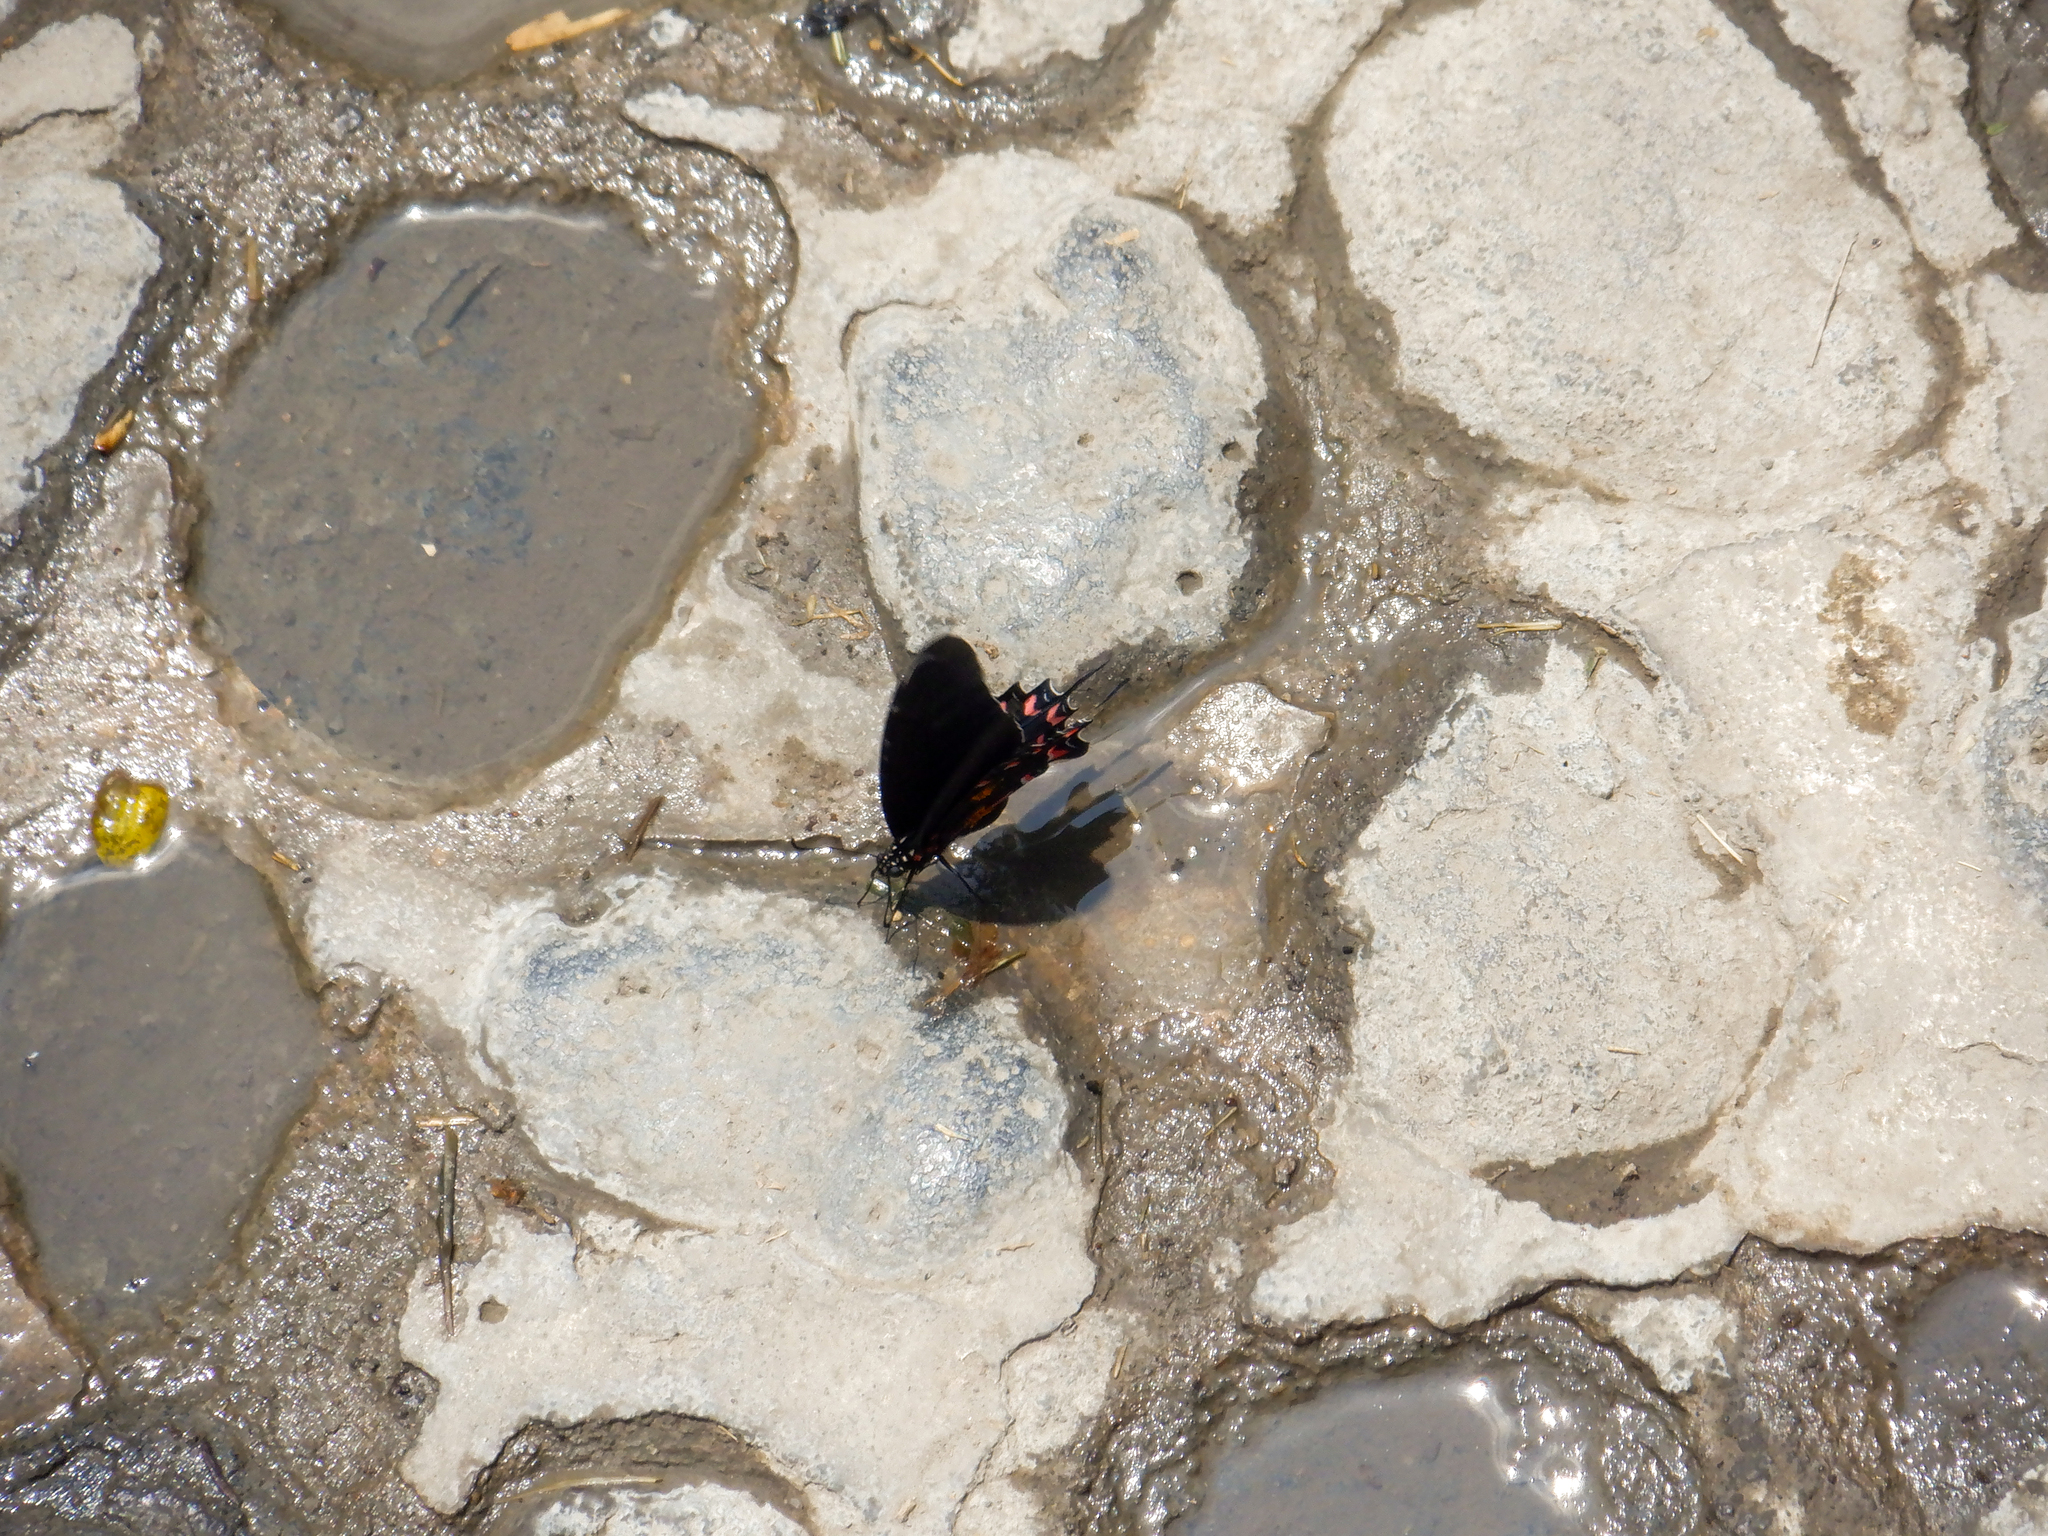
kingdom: Animalia
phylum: Arthropoda
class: Insecta
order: Lepidoptera
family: Papilionidae
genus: Mimoides
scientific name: Mimoides thymbraeus
